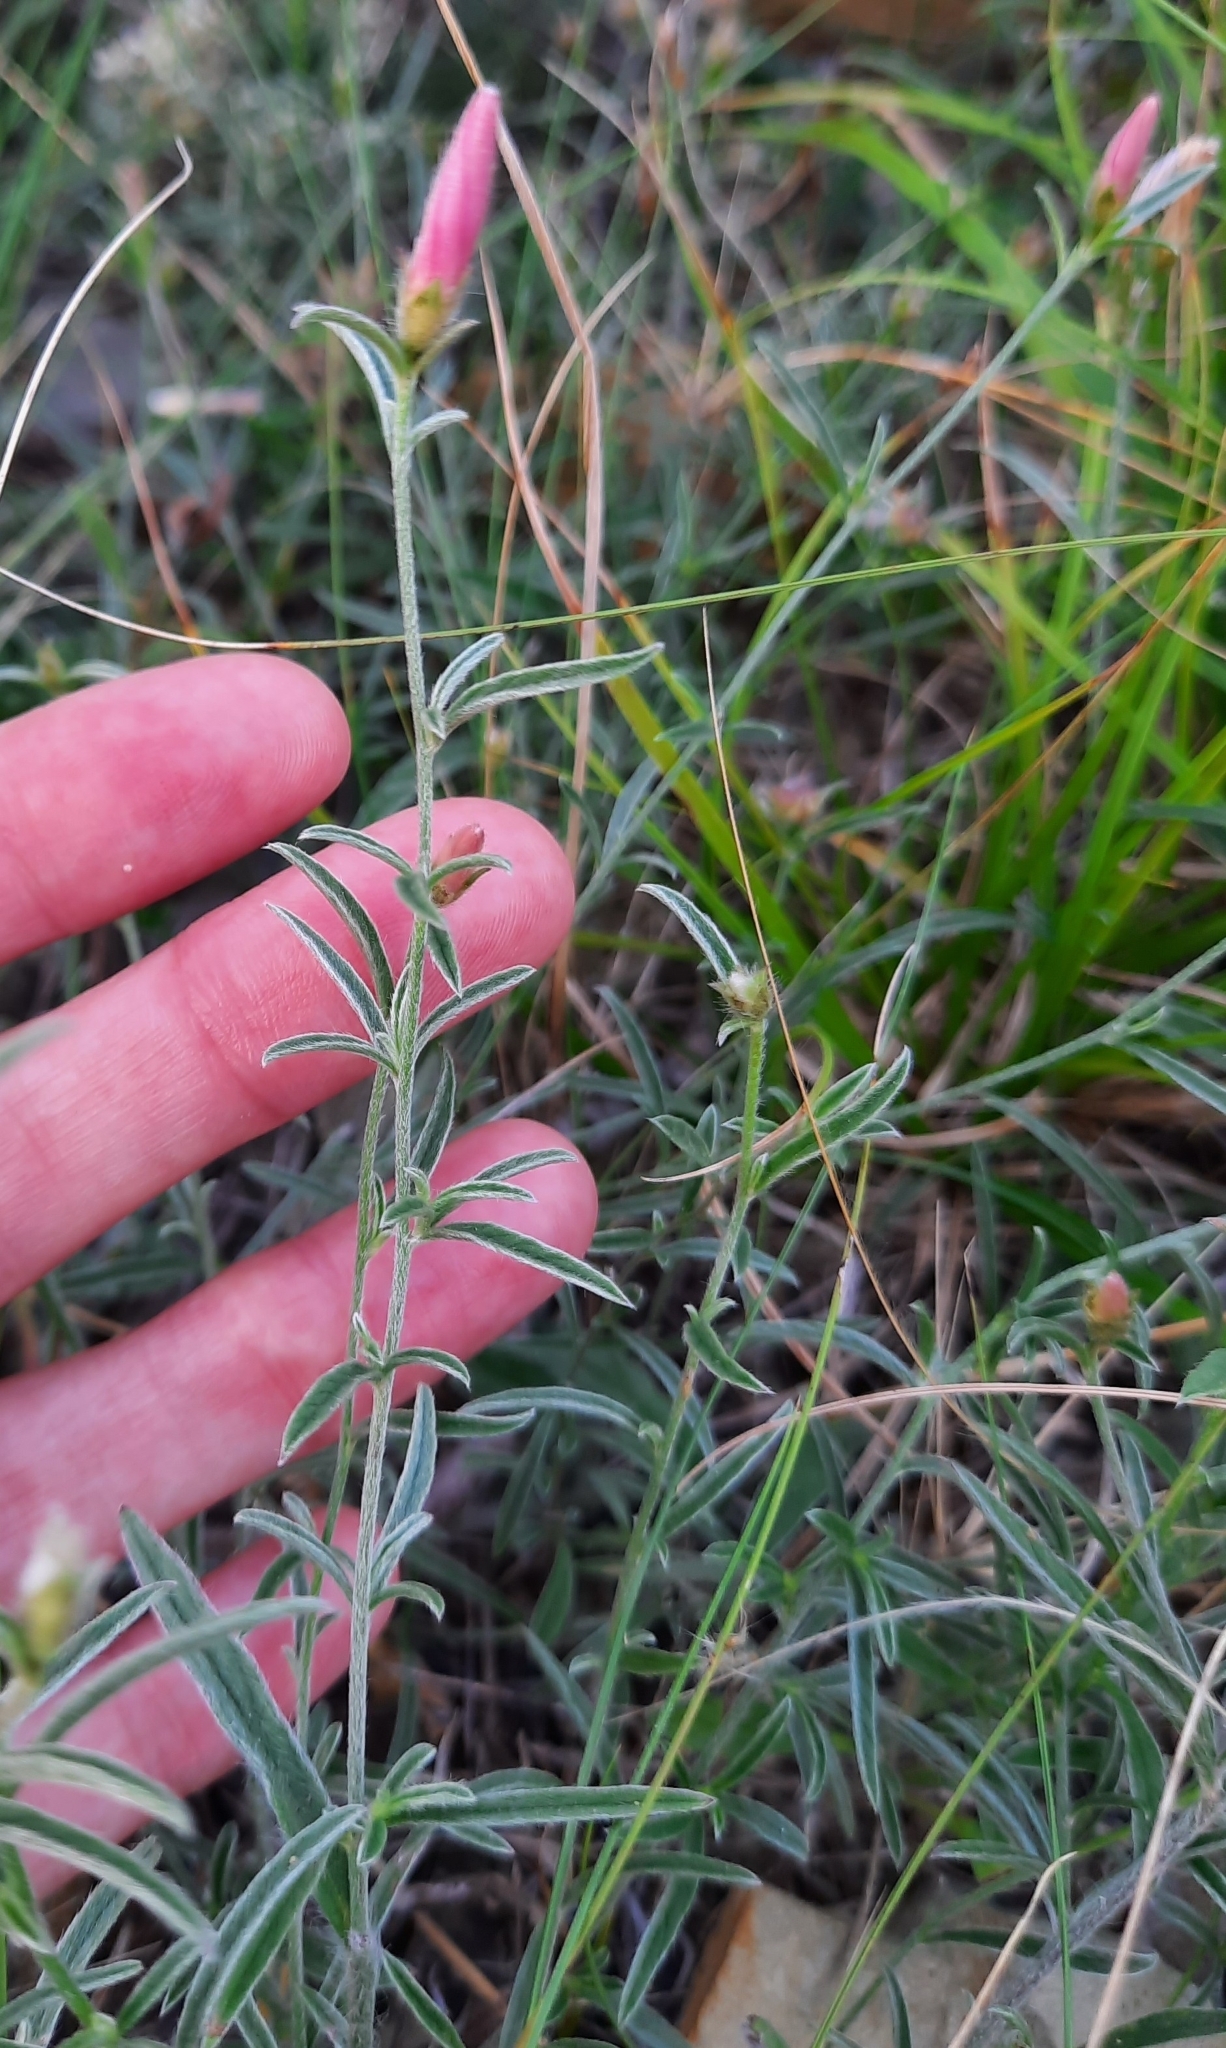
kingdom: Plantae
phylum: Tracheophyta
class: Magnoliopsida
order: Solanales
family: Convolvulaceae
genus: Convolvulus
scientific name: Convolvulus cantabrica
